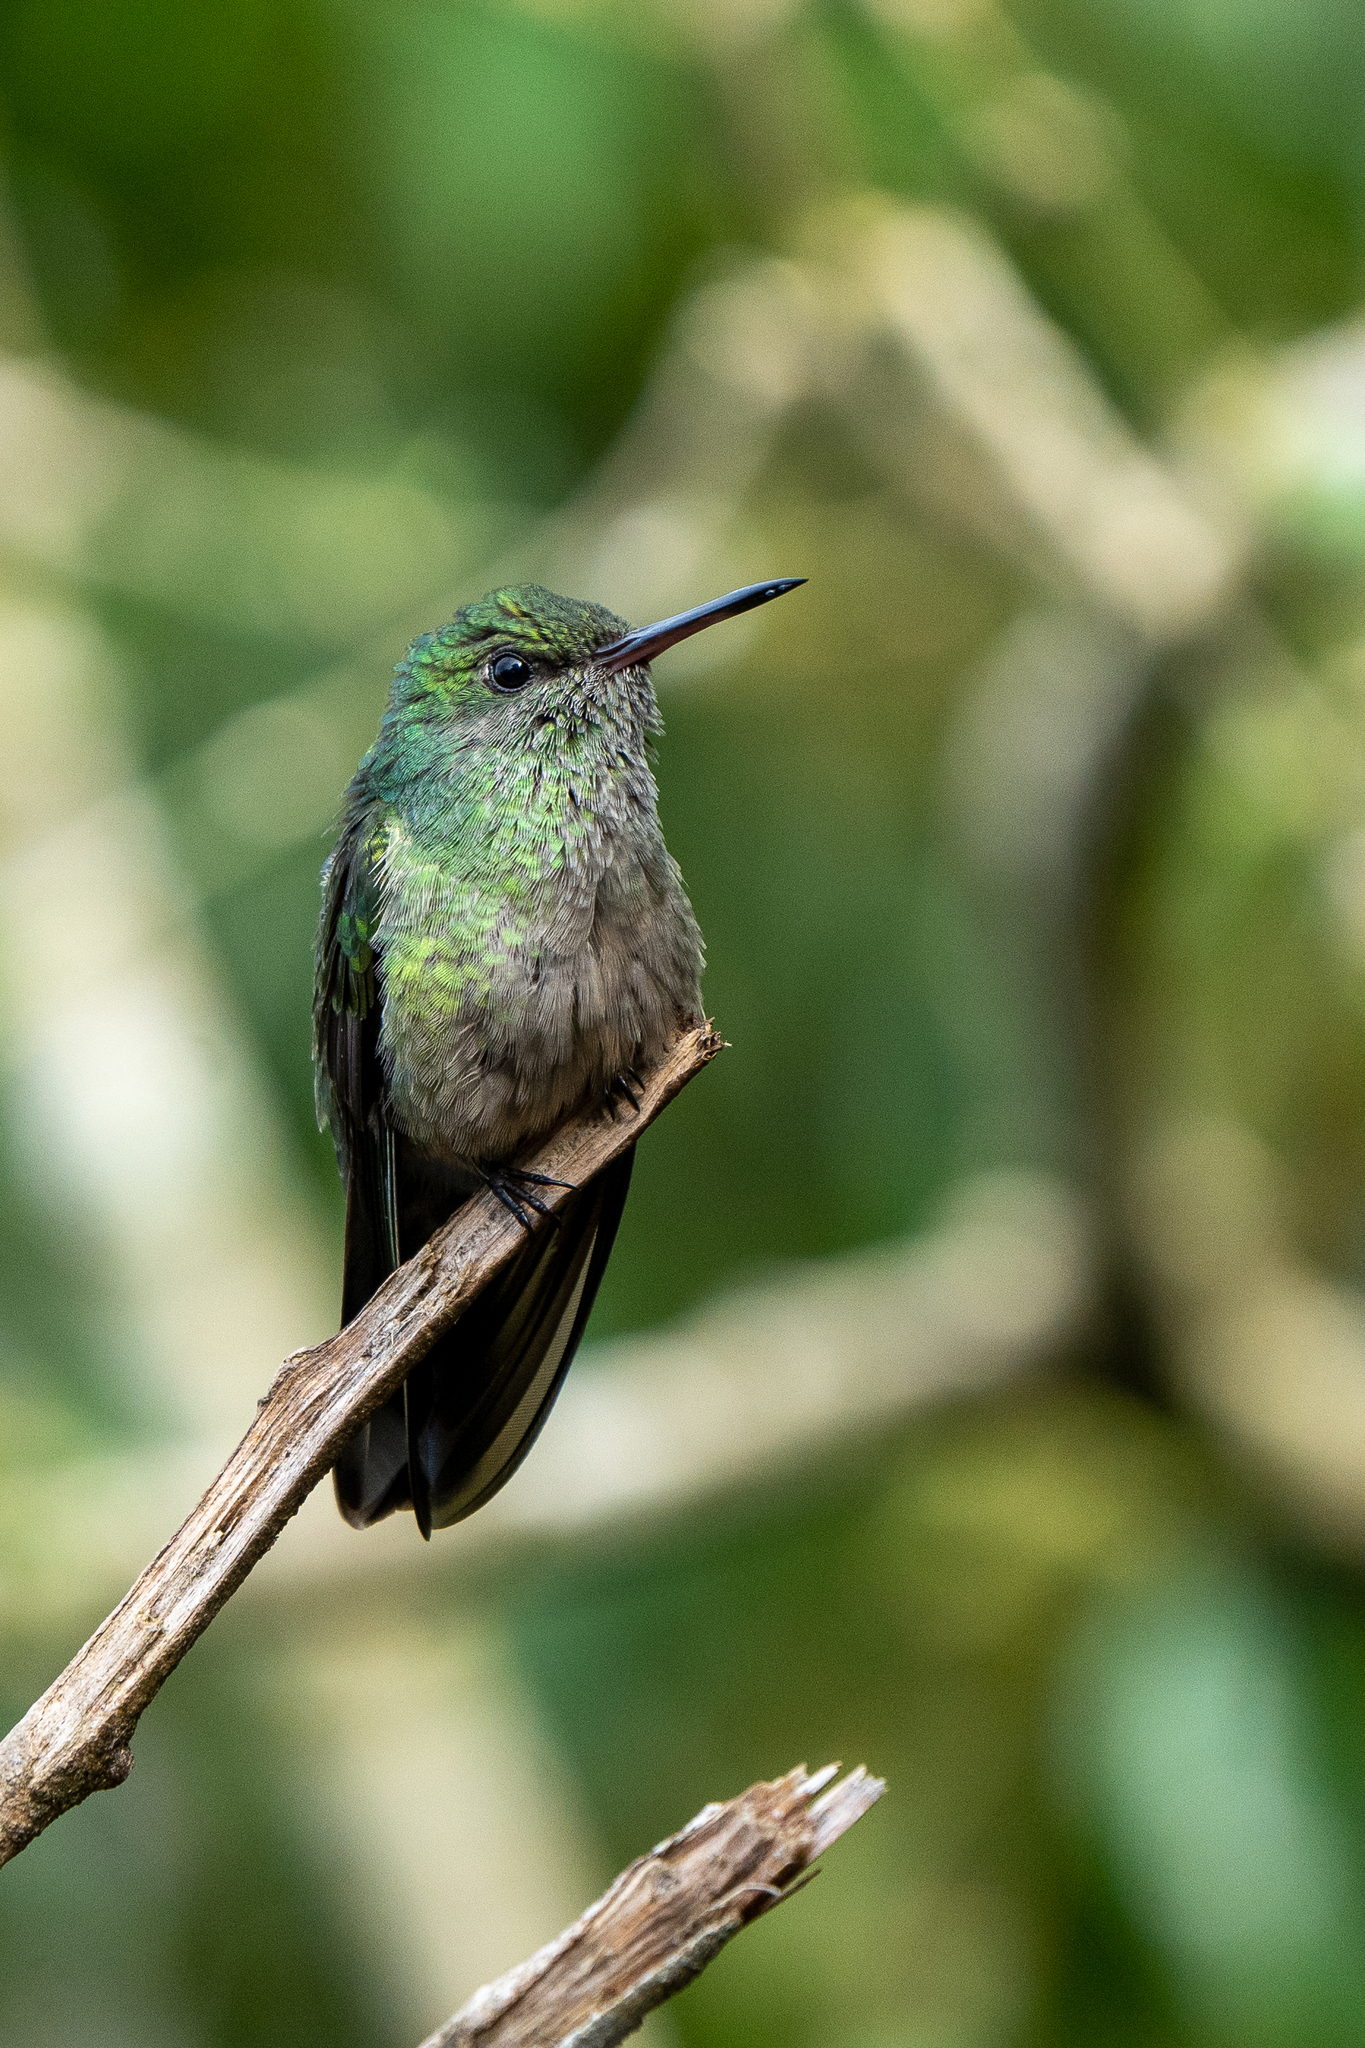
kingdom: Animalia
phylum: Chordata
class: Aves
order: Apodiformes
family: Trochilidae
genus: Phaeochroa
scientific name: Phaeochroa cuvierii
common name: Scaly-breasted hummingbird
